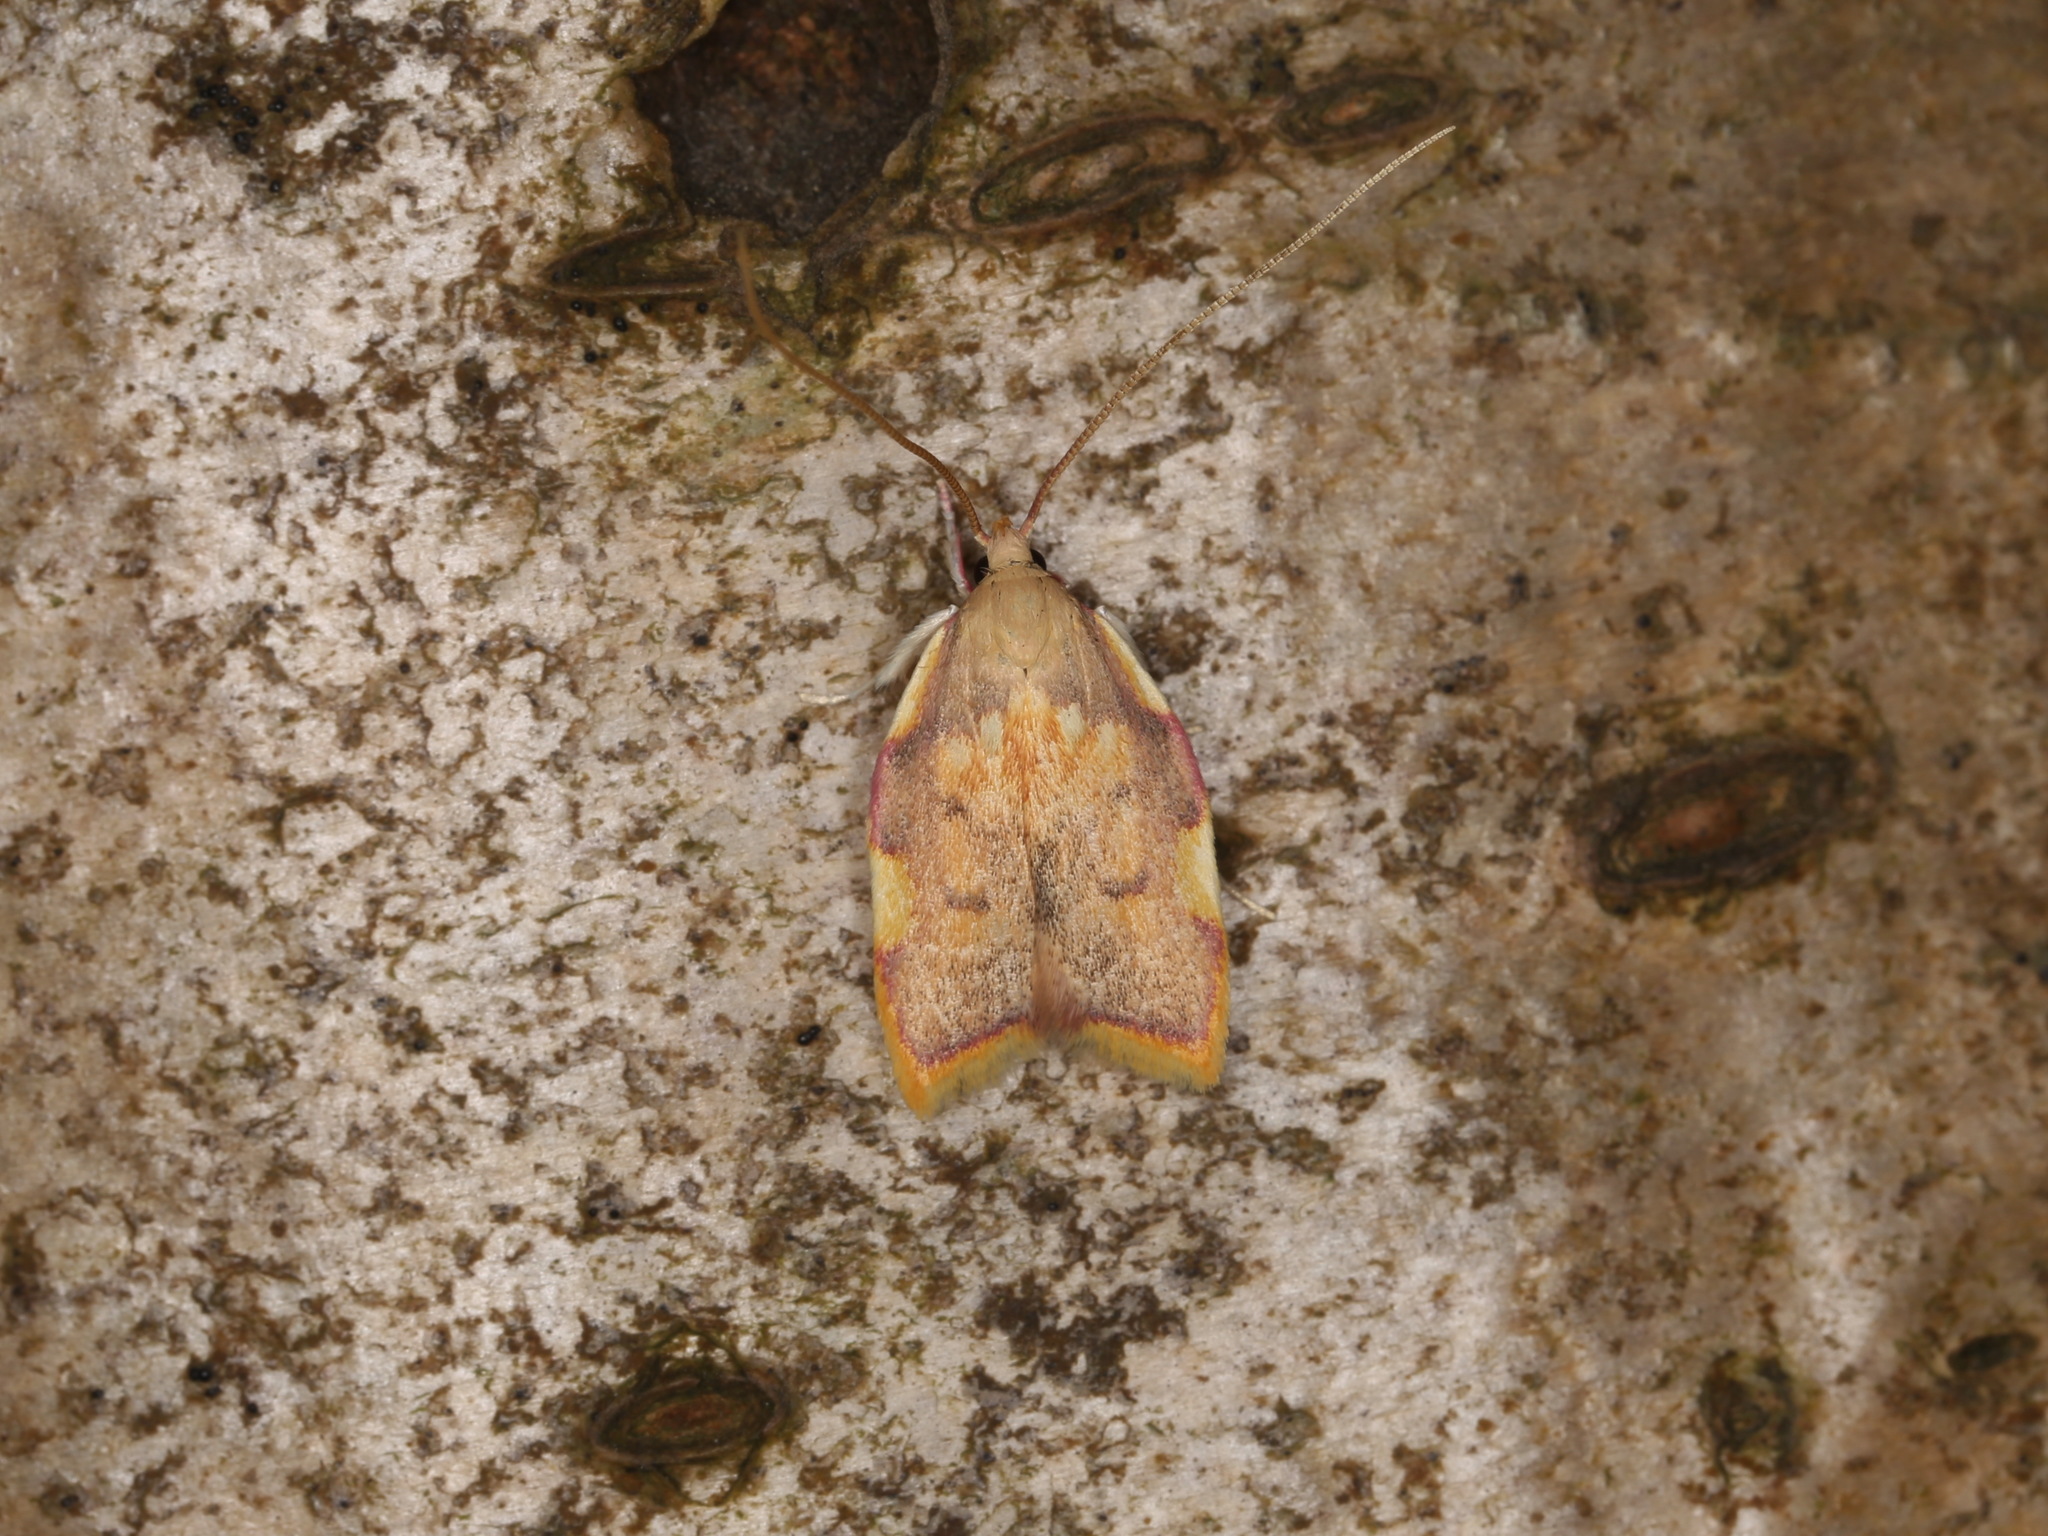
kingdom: Animalia
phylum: Arthropoda
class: Insecta
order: Lepidoptera
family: Peleopodidae
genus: Carcina
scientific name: Carcina quercana
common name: Moth
